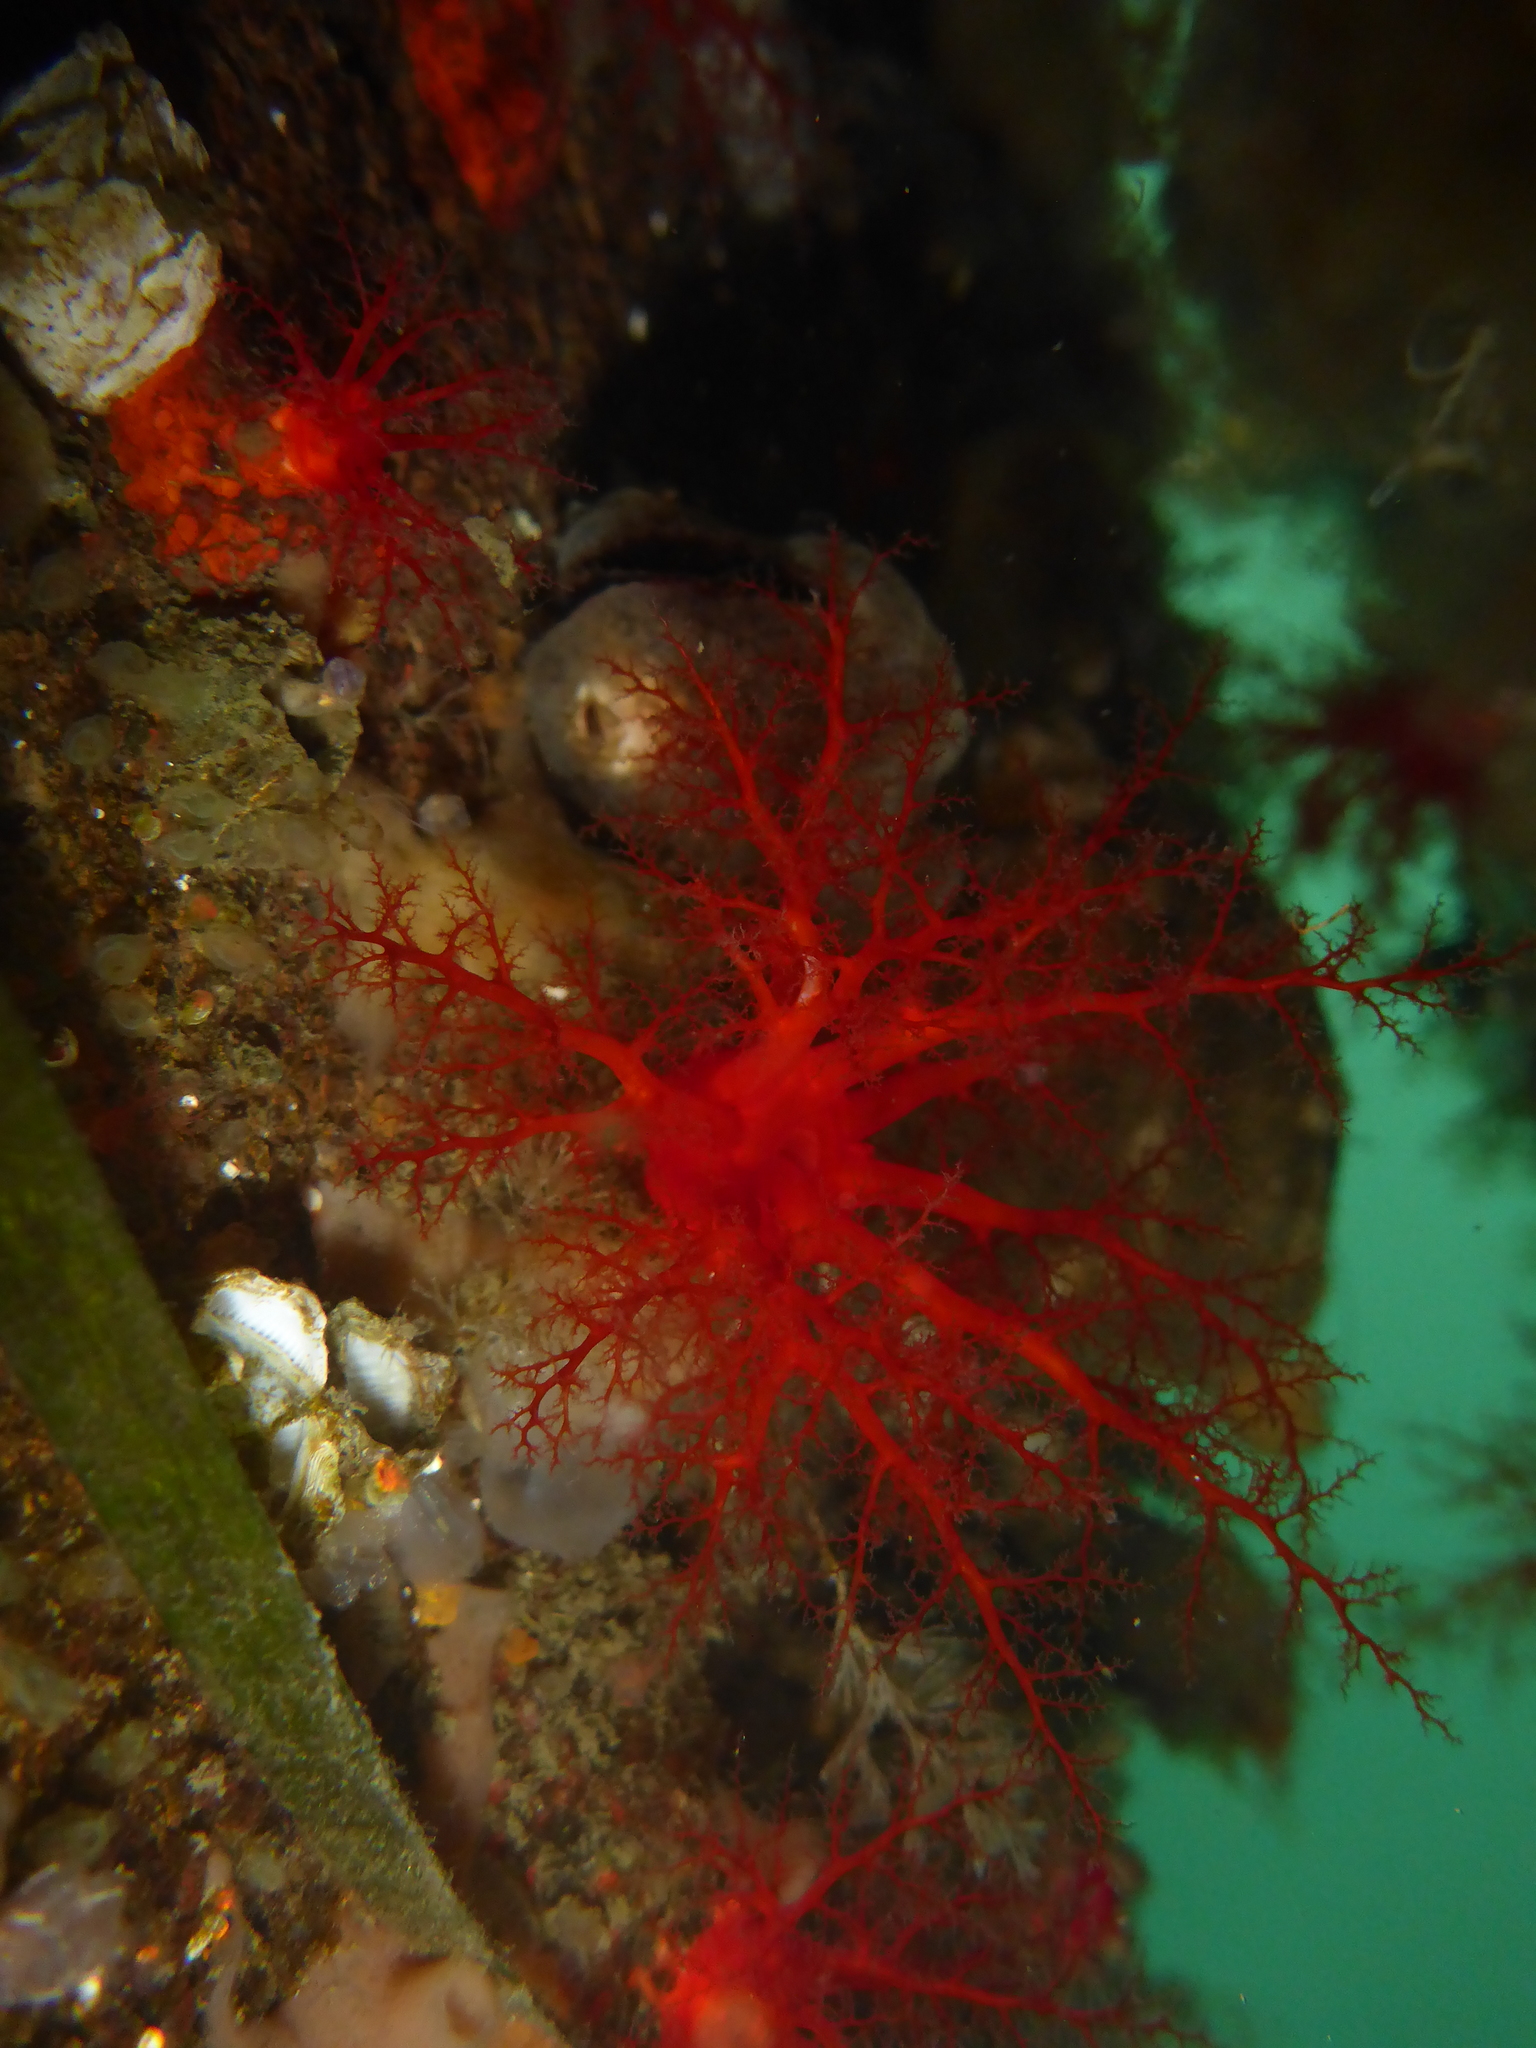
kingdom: Animalia
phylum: Echinodermata
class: Holothuroidea
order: Dendrochirotida
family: Psolidae
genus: Psolus
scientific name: Psolus chitonoides
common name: Creeping pedal sea cucumber
